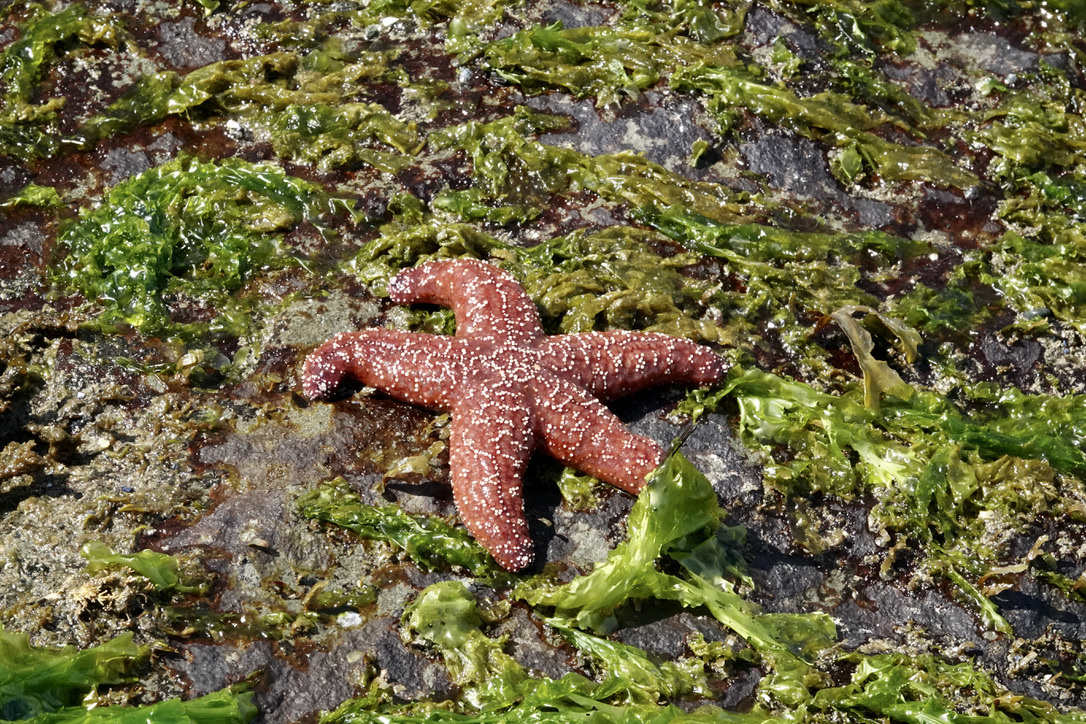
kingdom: Animalia
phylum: Echinodermata
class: Asteroidea
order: Forcipulatida
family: Asteriidae
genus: Pisaster
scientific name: Pisaster ochraceus
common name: Ochre stars
